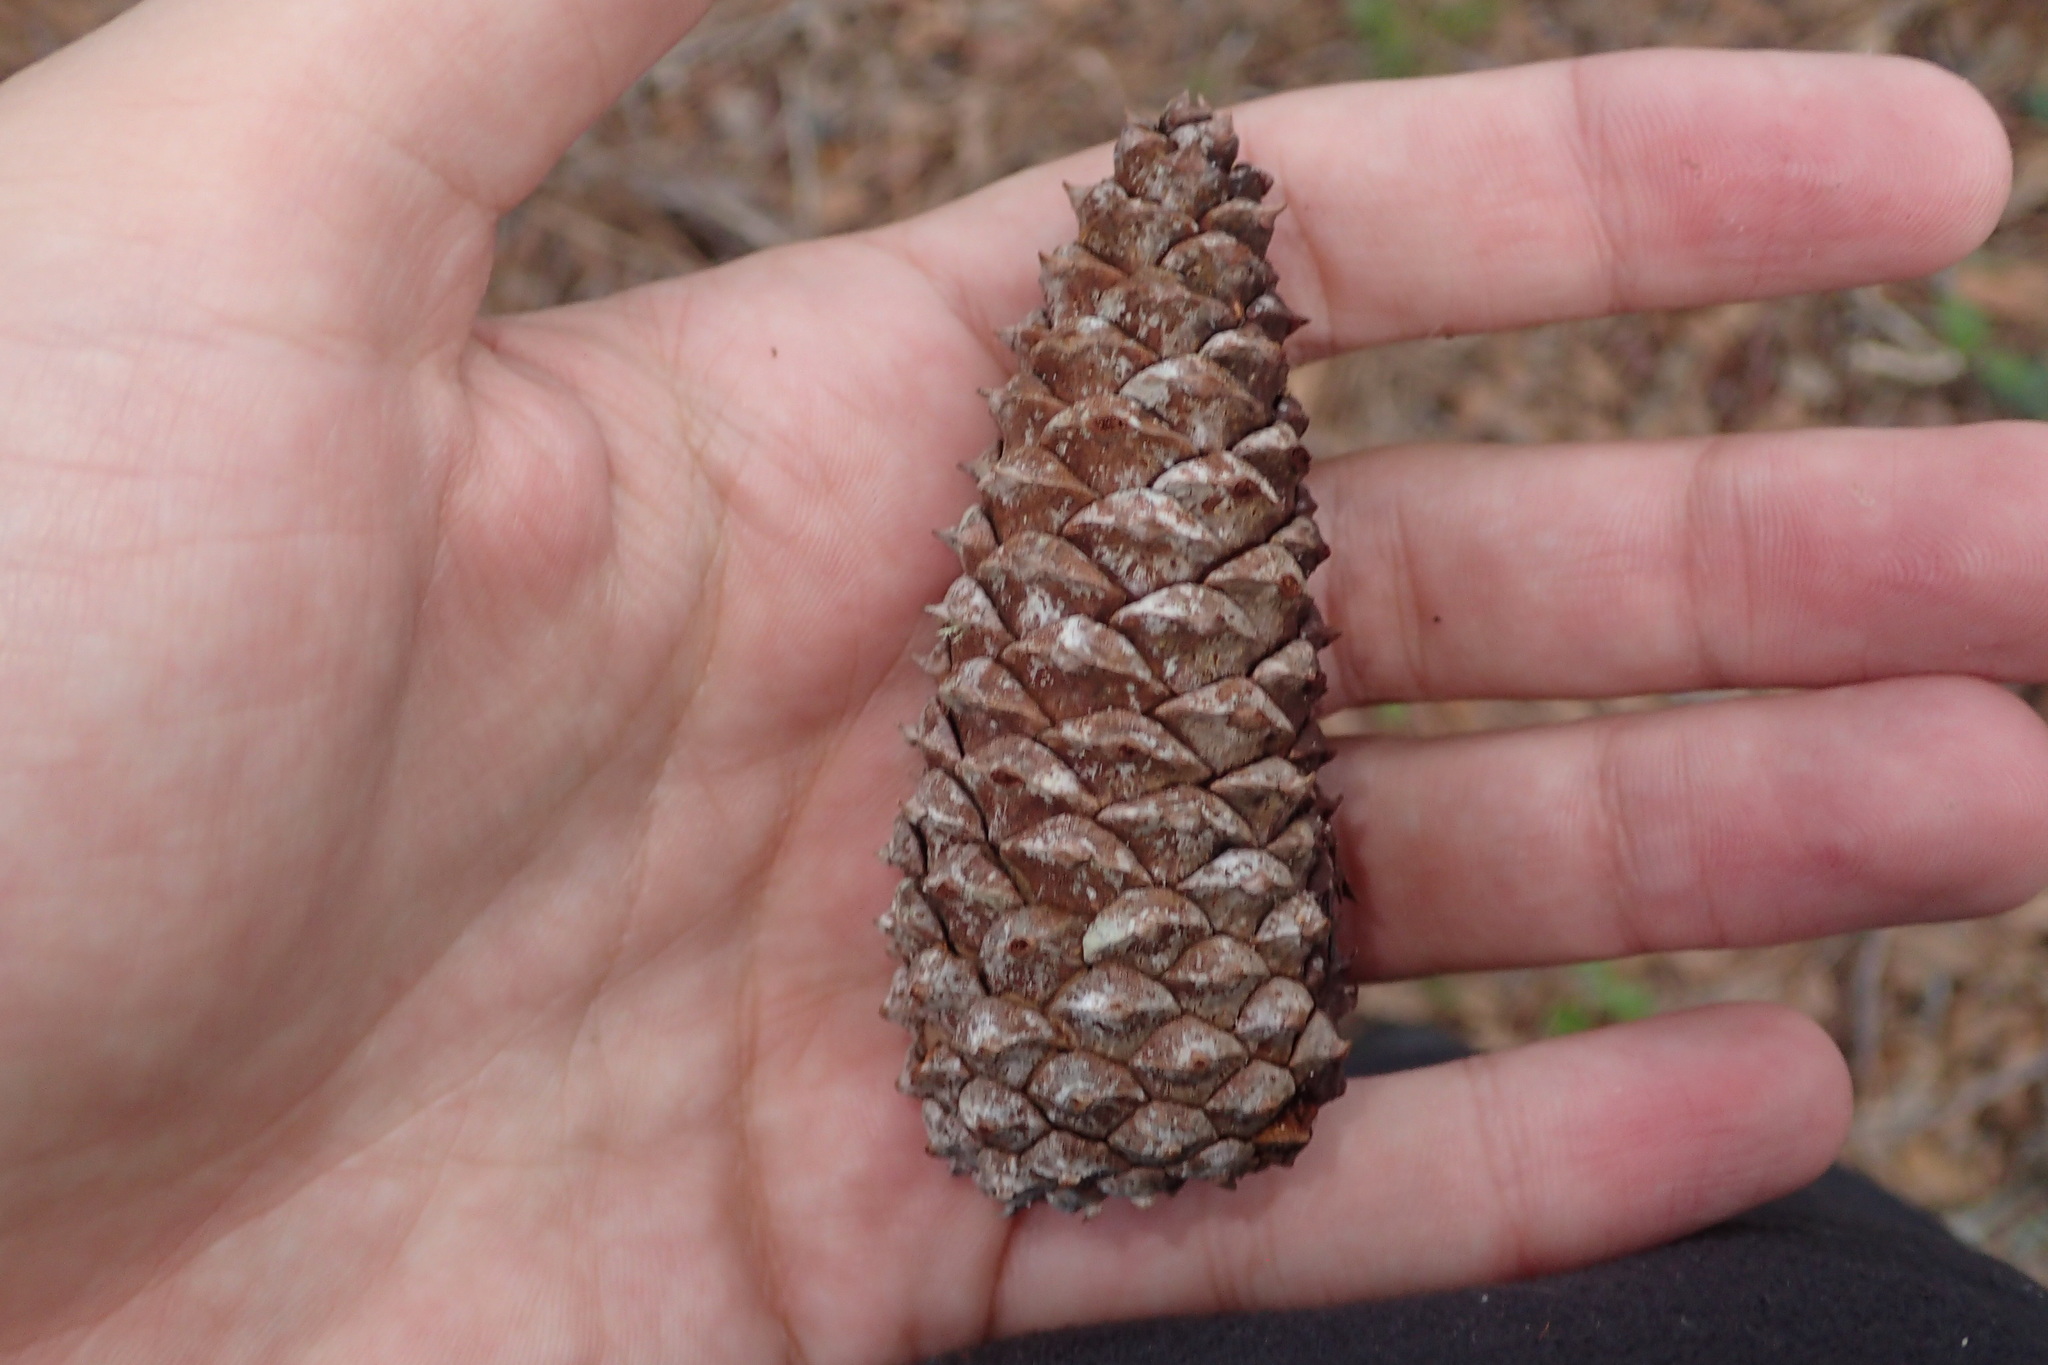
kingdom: Plantae
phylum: Tracheophyta
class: Pinopsida
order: Pinales
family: Pinaceae
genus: Pinus
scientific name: Pinus taeda
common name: Loblolly pine
